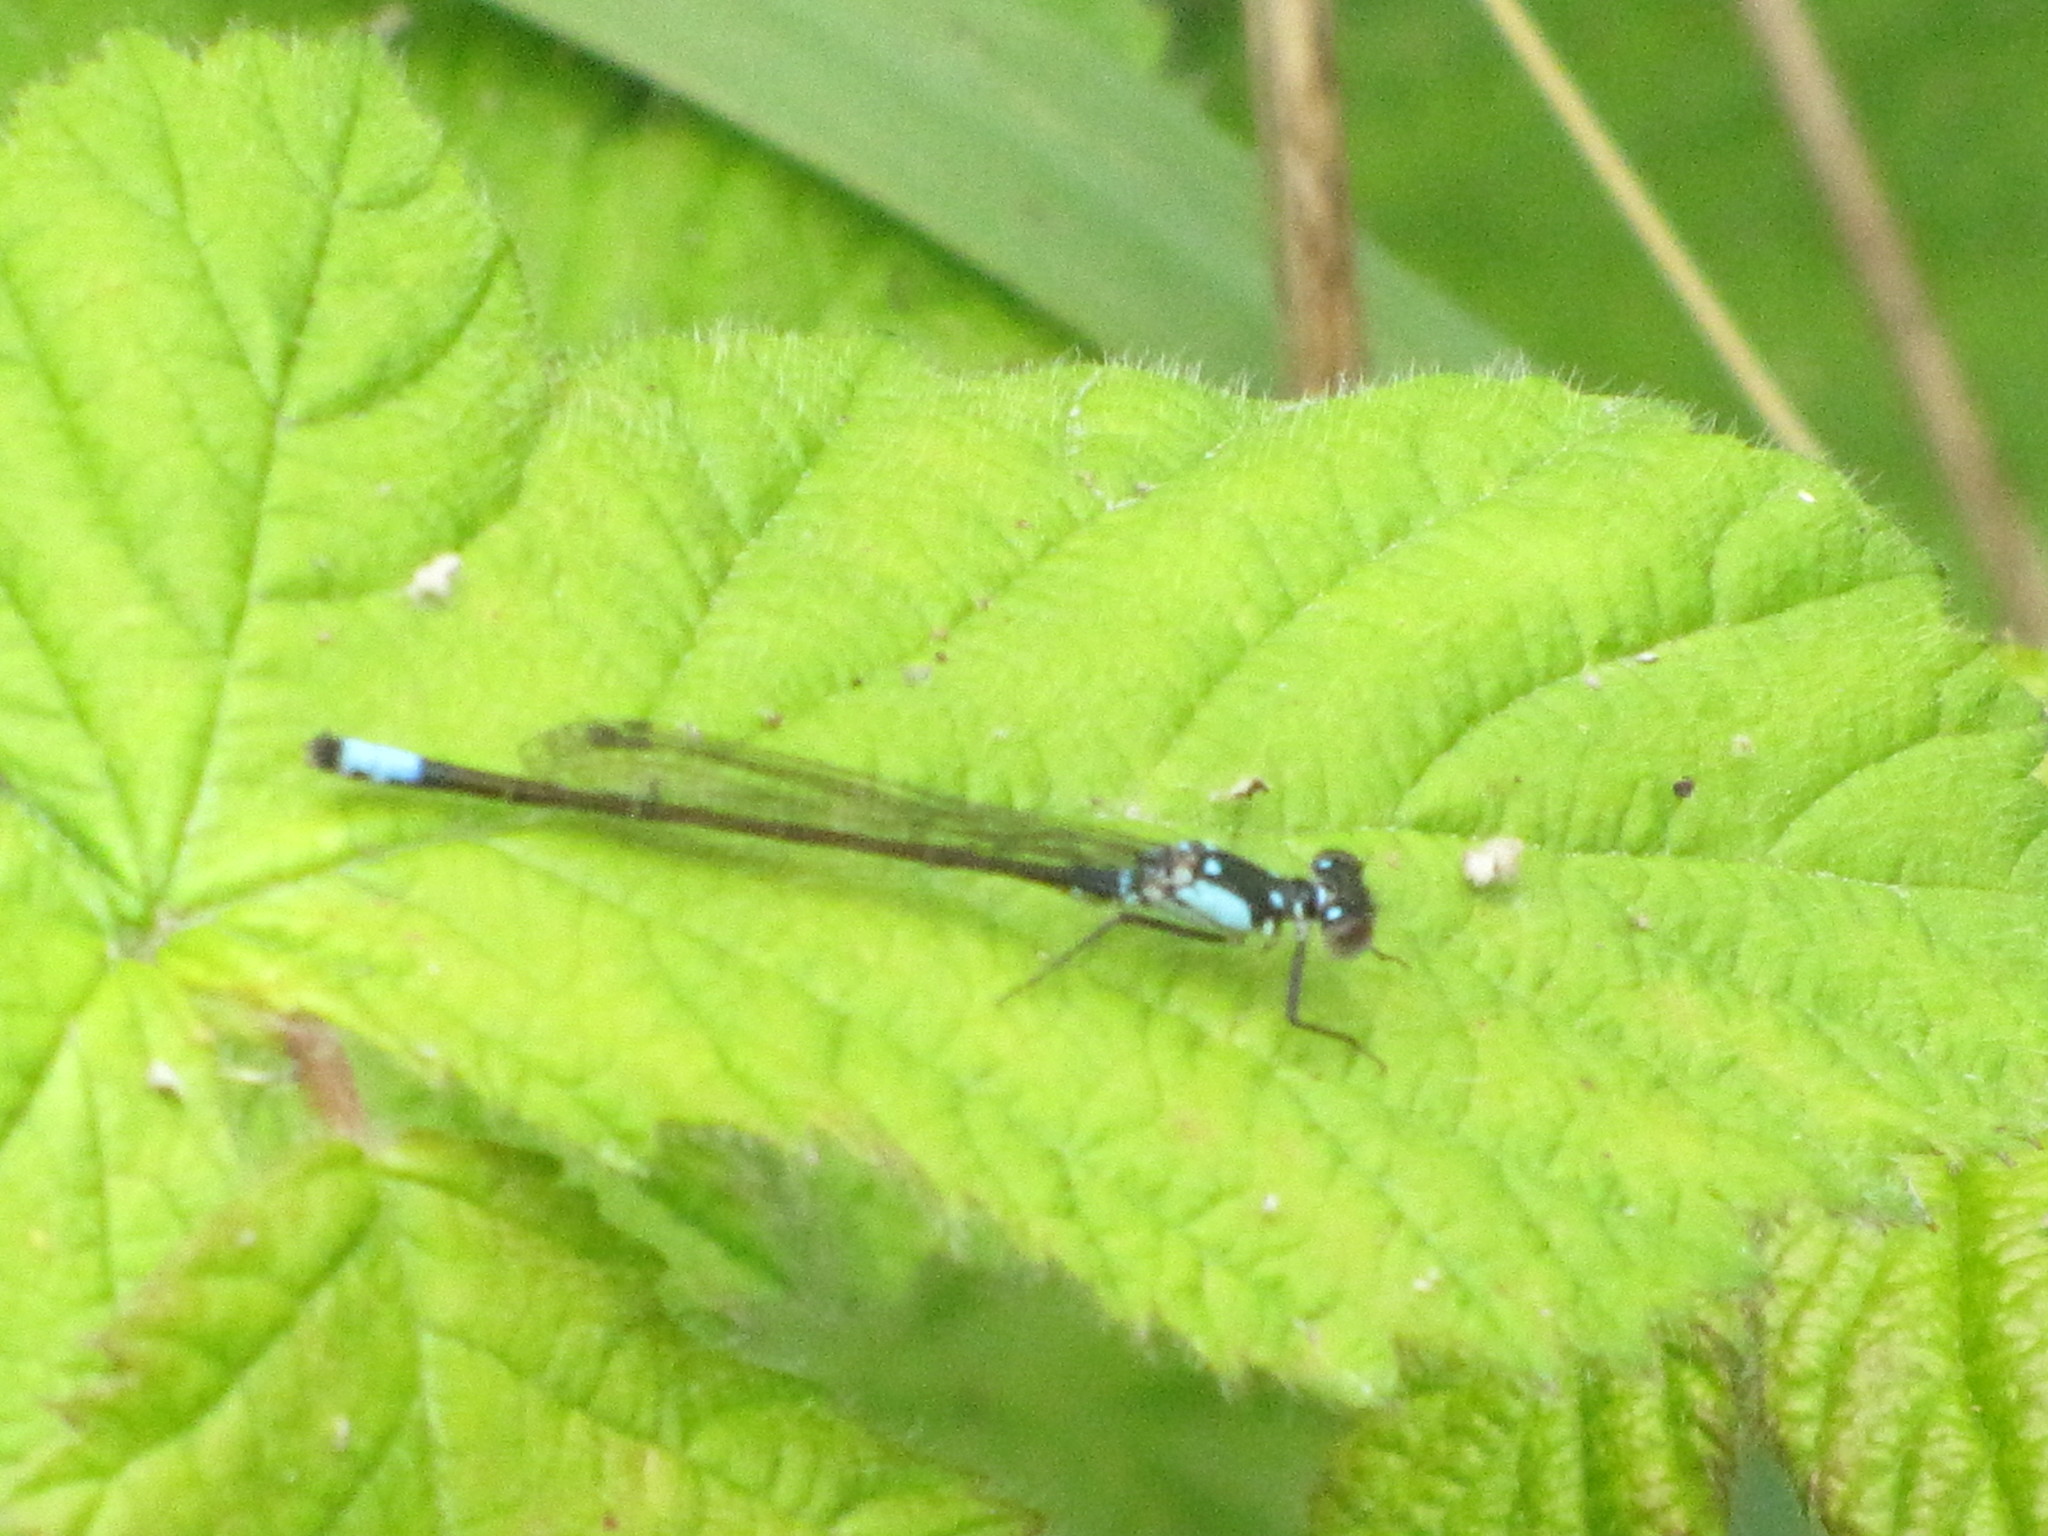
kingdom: Animalia
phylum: Arthropoda
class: Insecta
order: Odonata
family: Coenagrionidae
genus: Ischnura
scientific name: Ischnura cervula
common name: Pacific forktail
